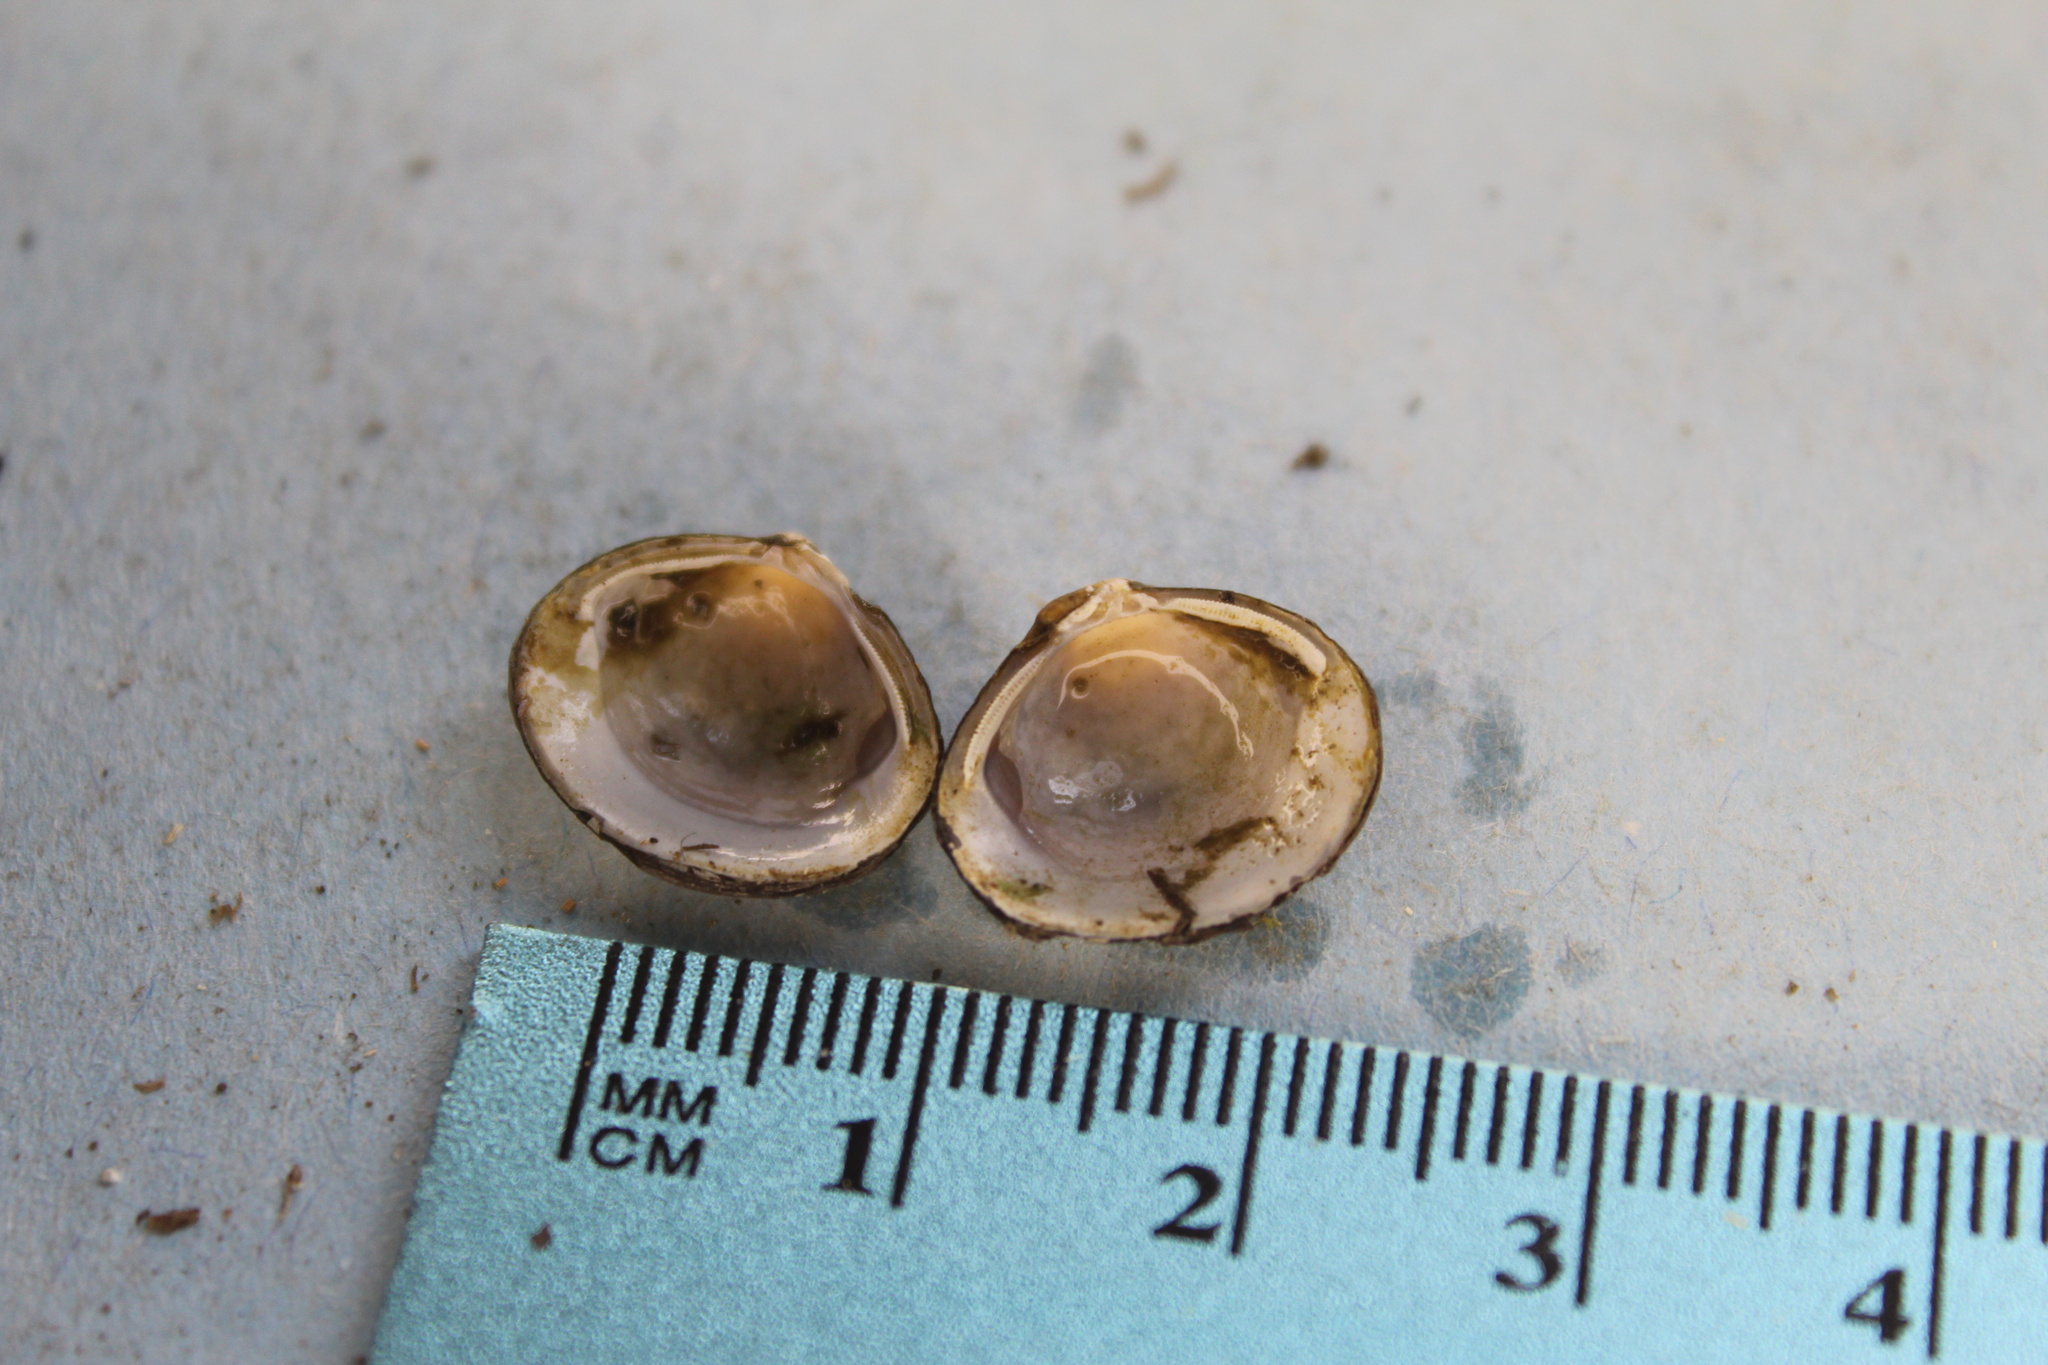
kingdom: Animalia
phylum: Mollusca
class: Bivalvia
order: Venerida
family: Cyrenidae
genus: Corbicula
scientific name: Corbicula fluminea
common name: Asian clam
